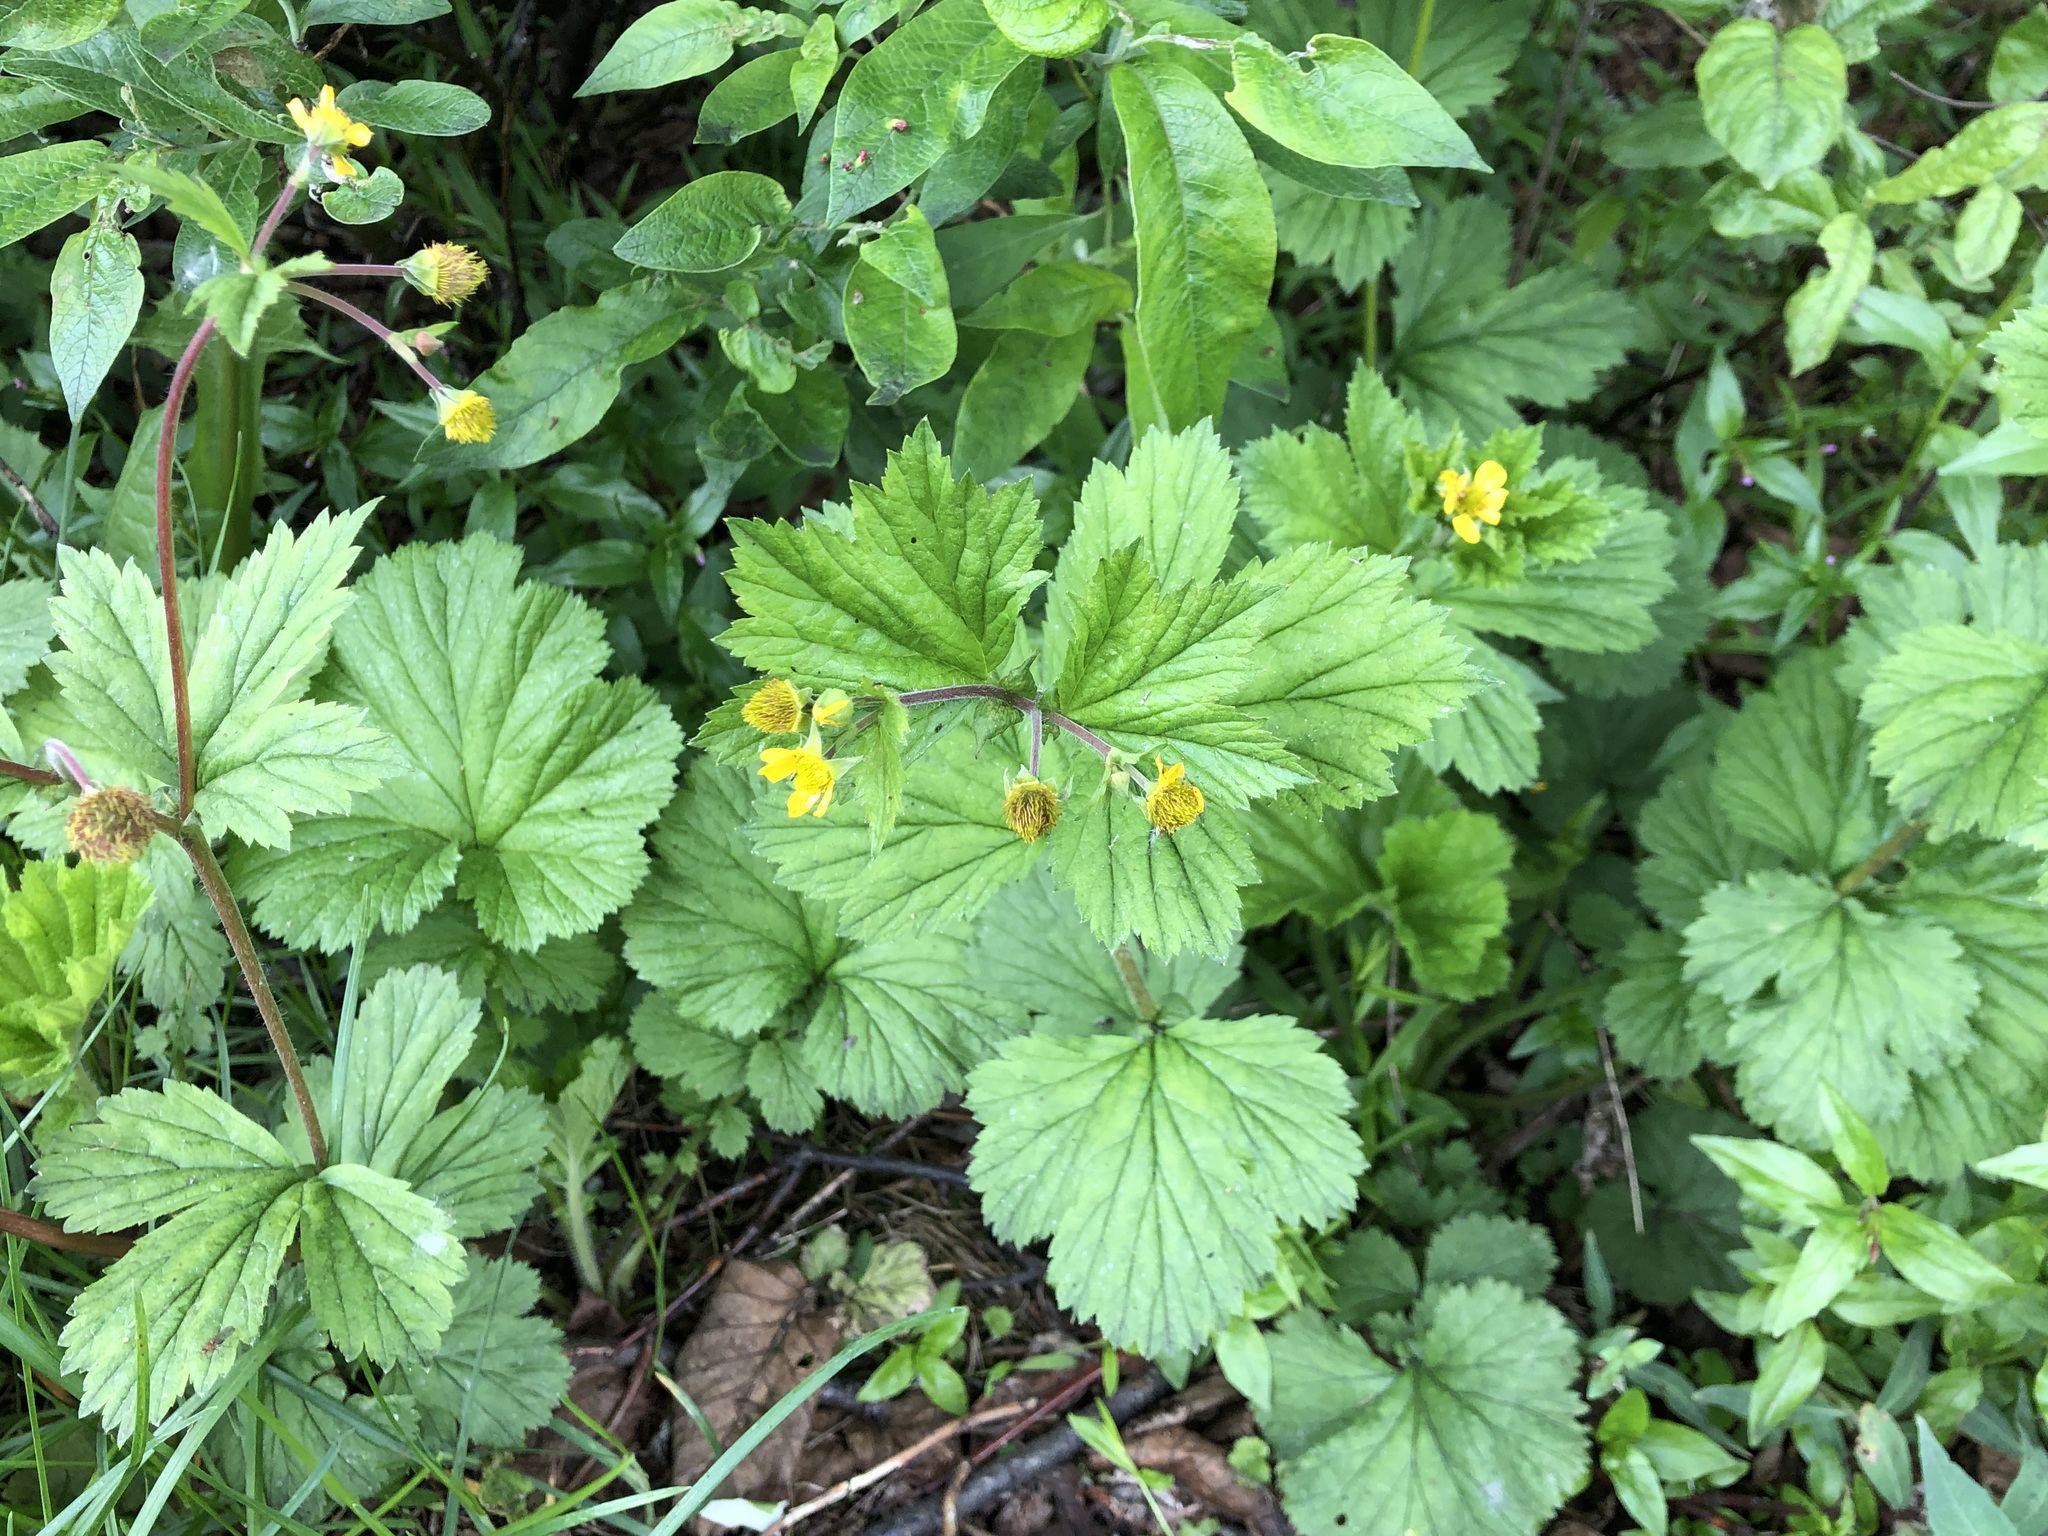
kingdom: Plantae
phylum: Tracheophyta
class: Magnoliopsida
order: Rosales
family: Rosaceae
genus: Geum
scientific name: Geum macrophyllum
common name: Large-leaved avens
